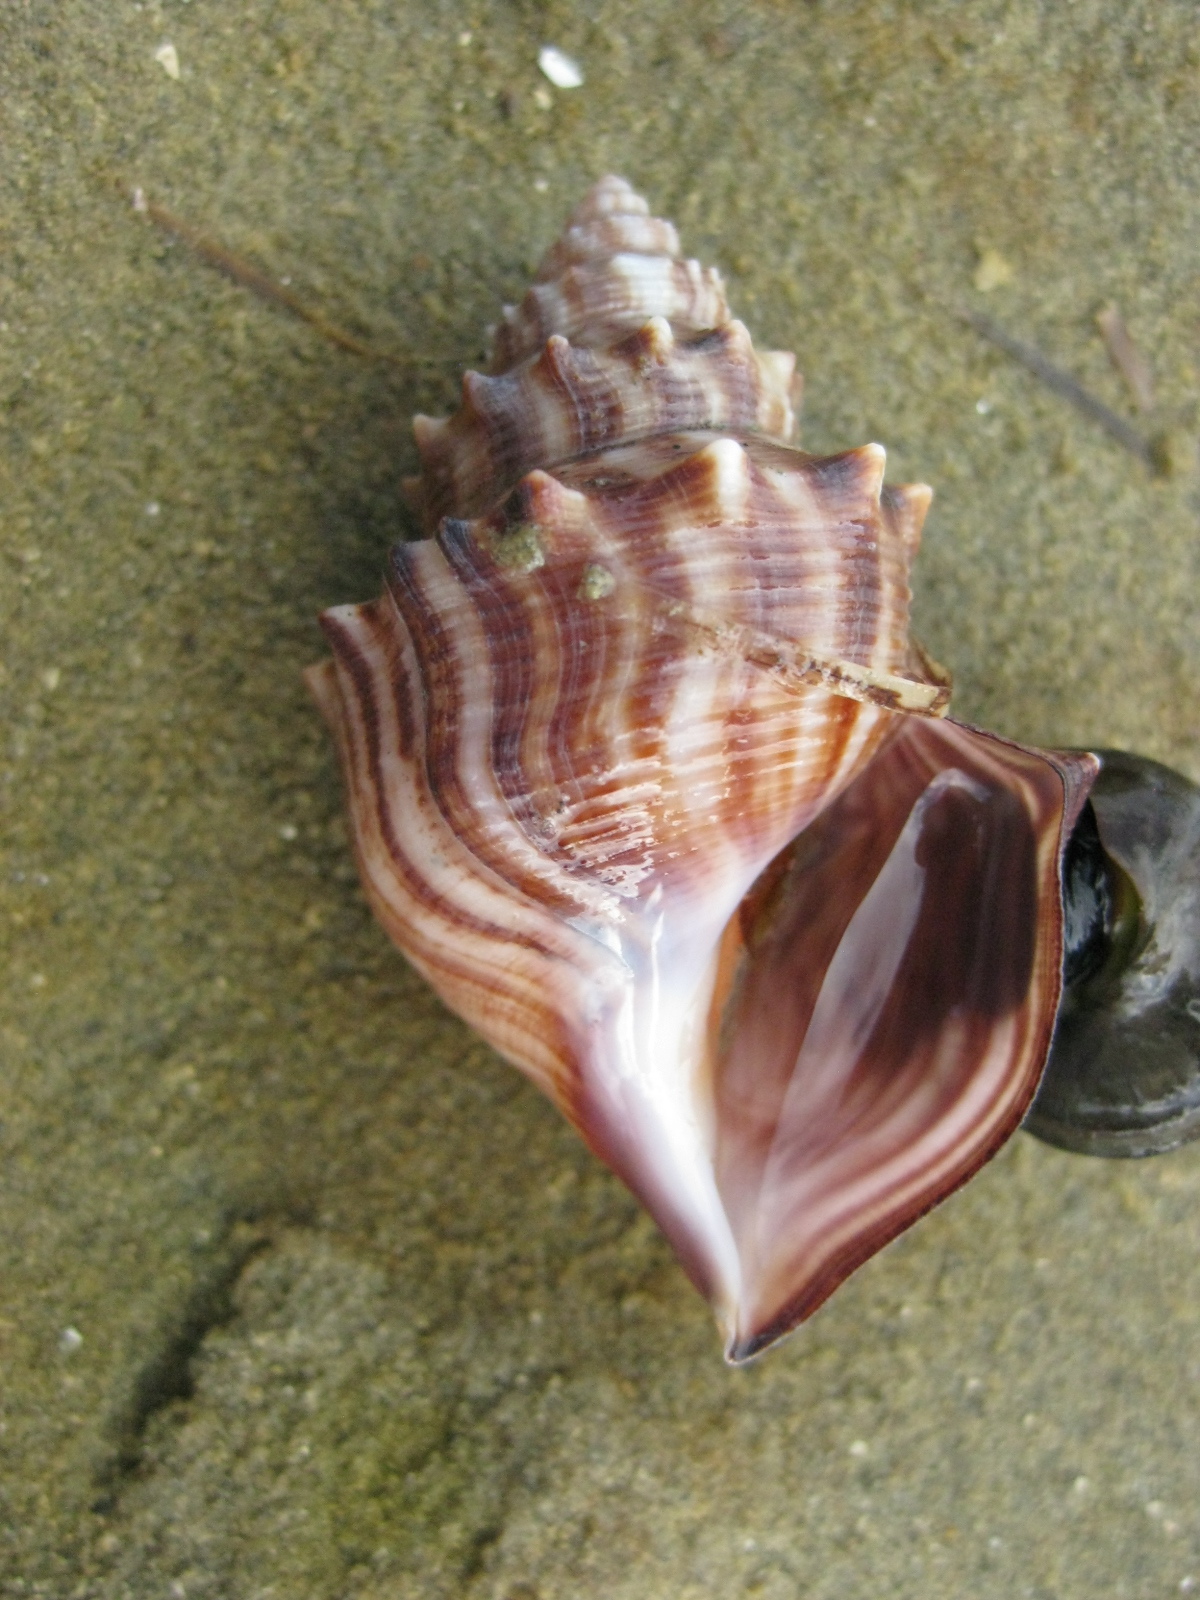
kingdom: Animalia
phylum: Mollusca
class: Gastropoda
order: Littorinimorpha
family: Struthiolariidae
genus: Struthiolaria
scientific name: Struthiolaria papulosa
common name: Large ostrich foot
